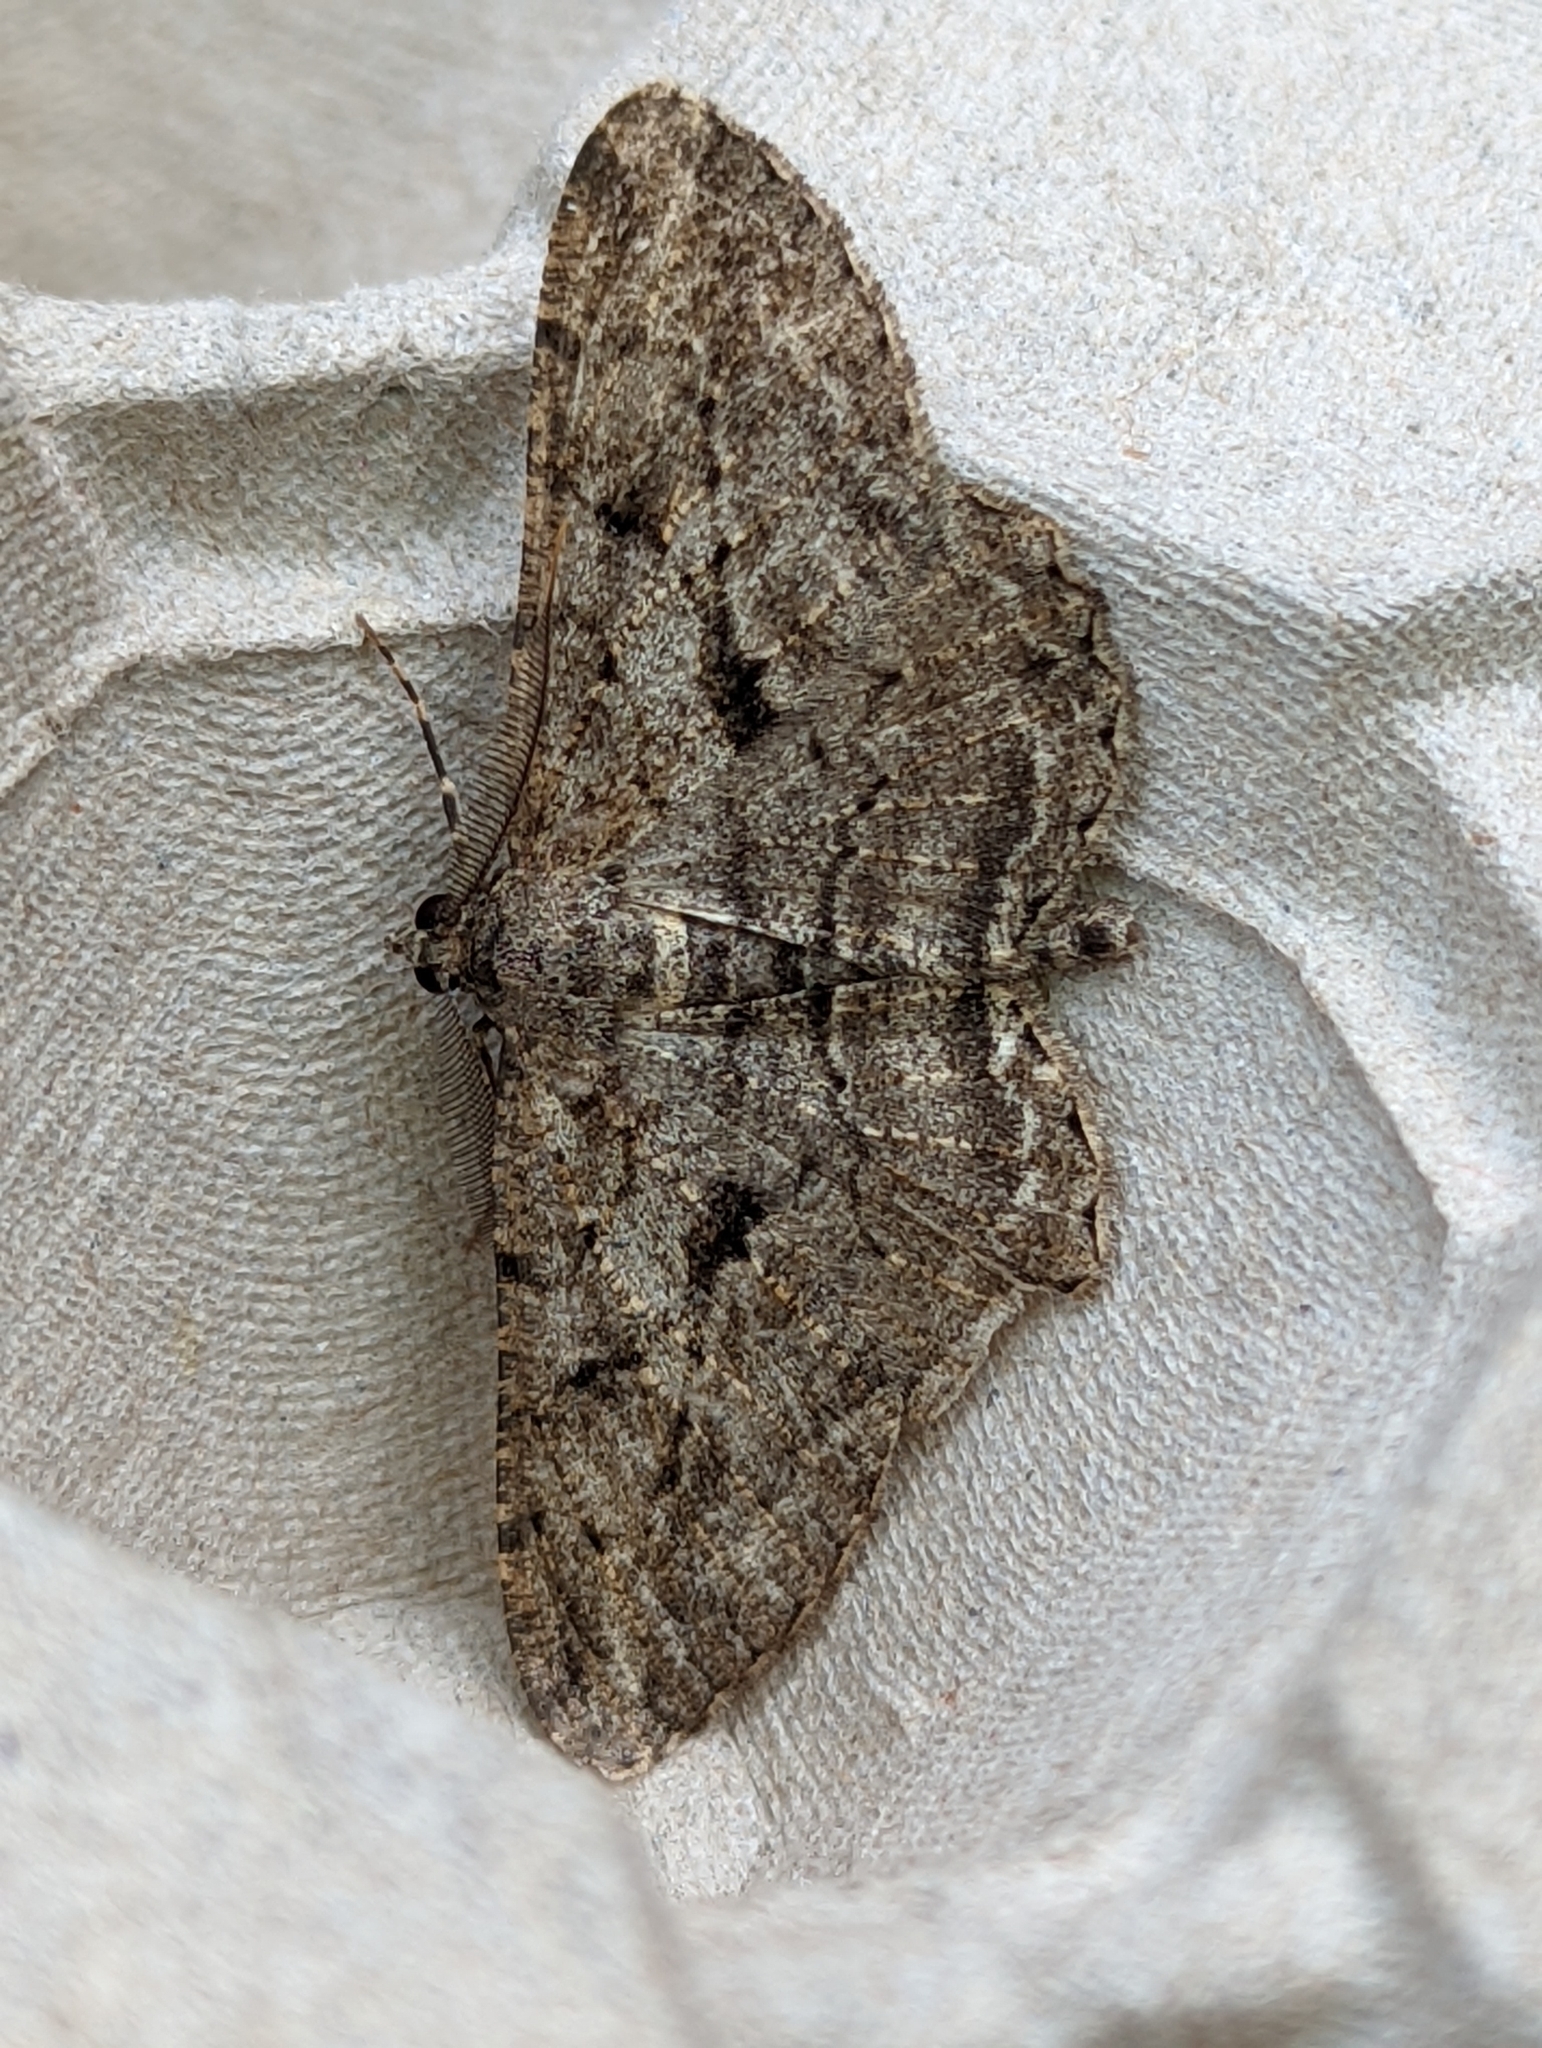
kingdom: Animalia
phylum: Arthropoda
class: Insecta
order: Lepidoptera
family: Geometridae
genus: Peribatodes
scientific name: Peribatodes rhomboidaria
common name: Willow beauty
